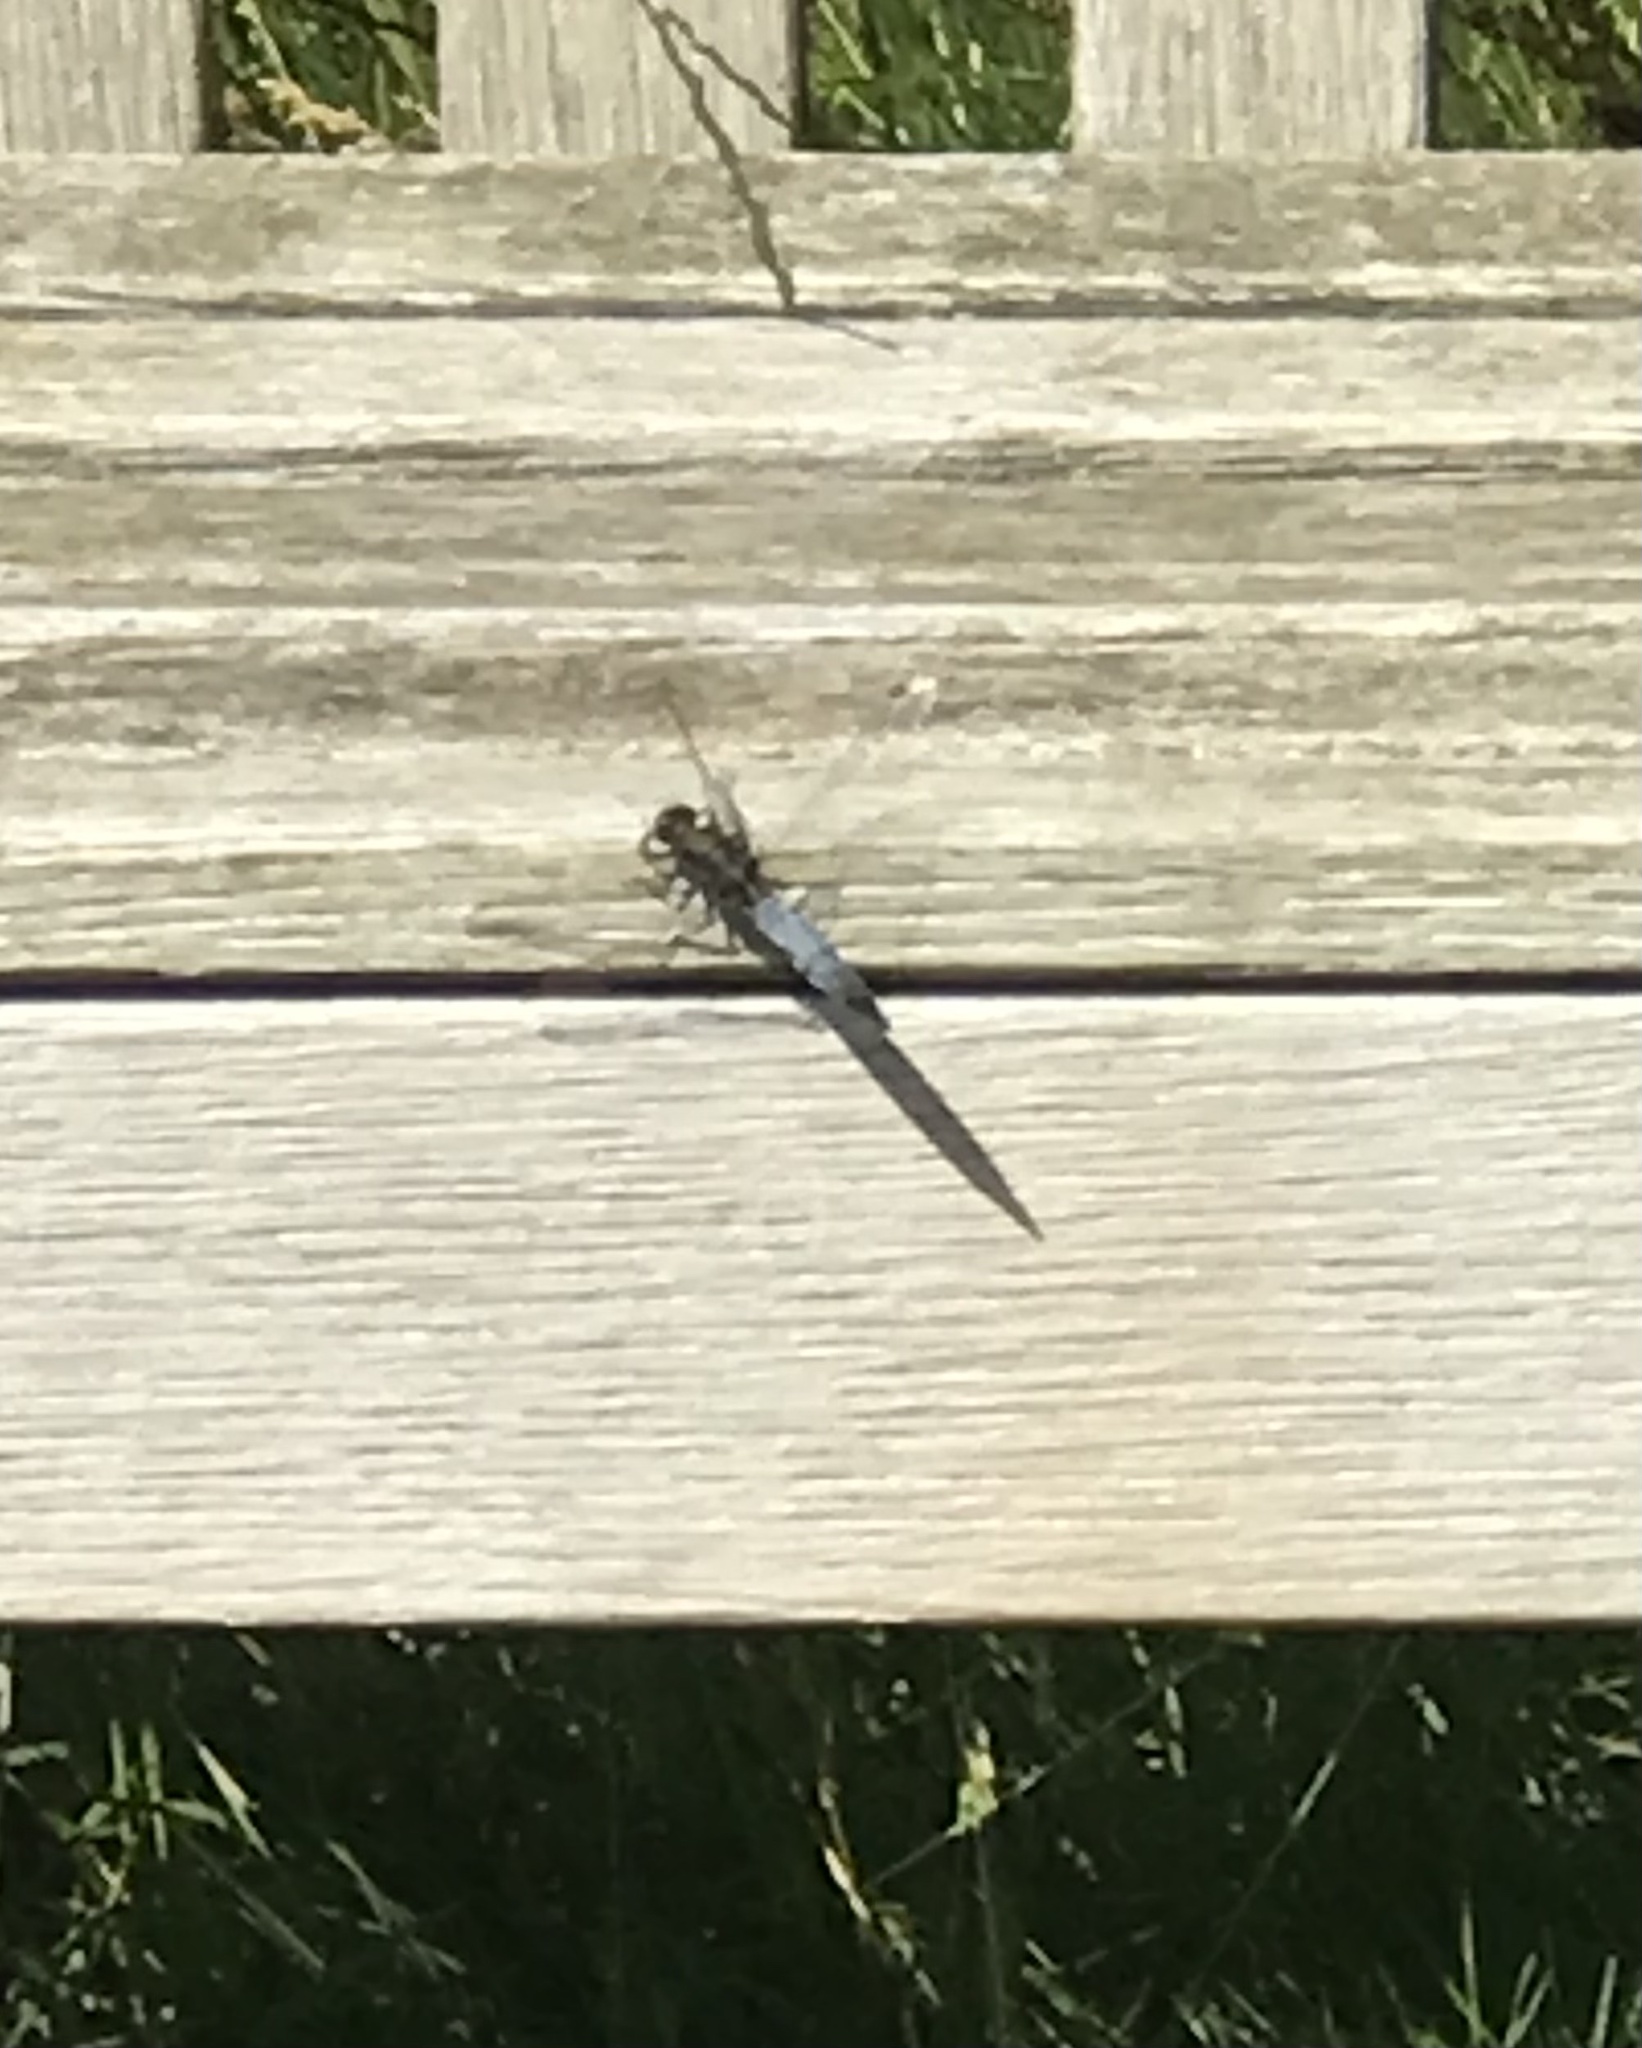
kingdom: Animalia
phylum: Arthropoda
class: Insecta
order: Odonata
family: Libellulidae
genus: Orthetrum
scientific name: Orthetrum cancellatum
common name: Black-tailed skimmer
